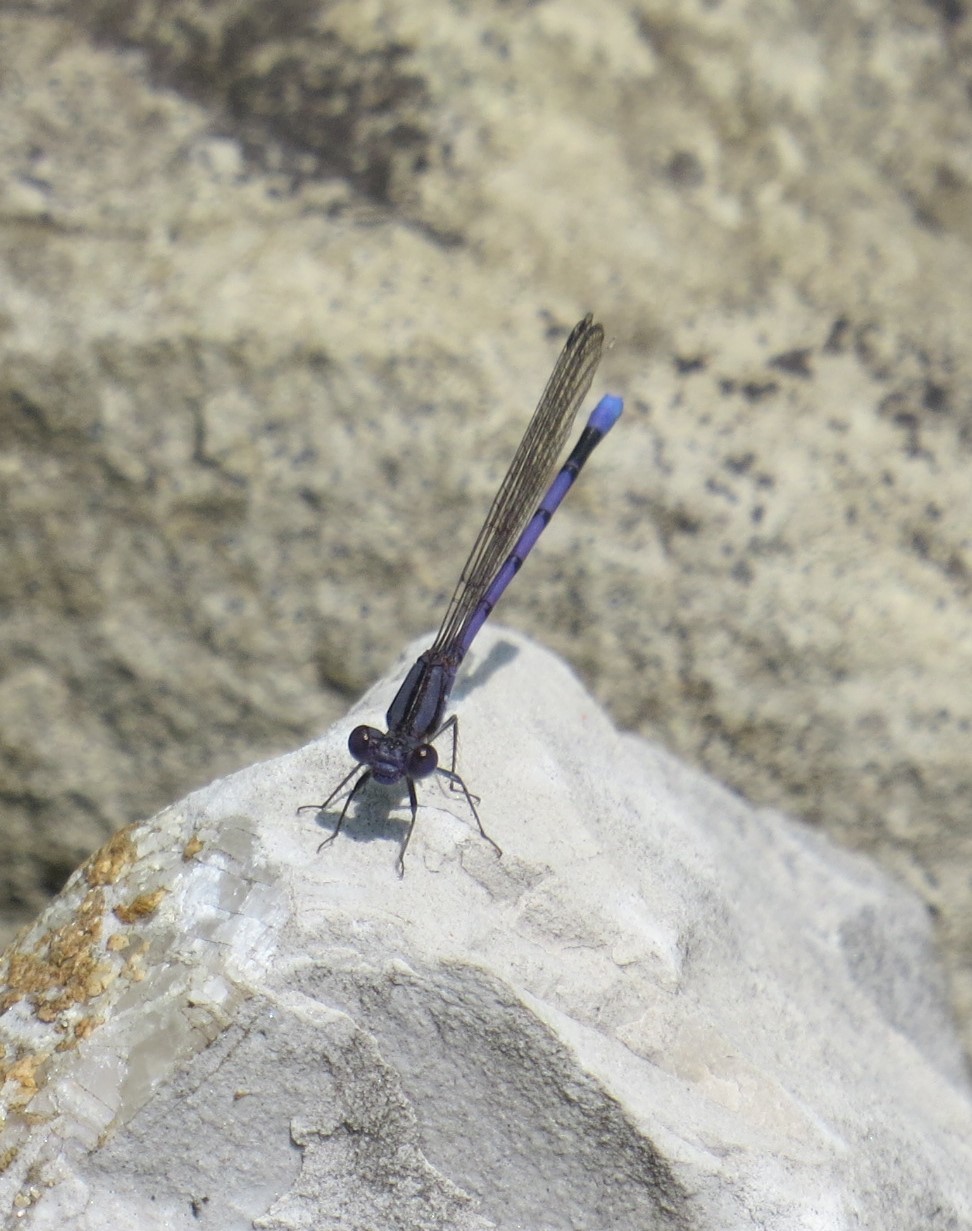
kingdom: Animalia
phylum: Arthropoda
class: Insecta
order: Odonata
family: Coenagrionidae
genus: Argia
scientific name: Argia fumipennis
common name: Variable dancer
